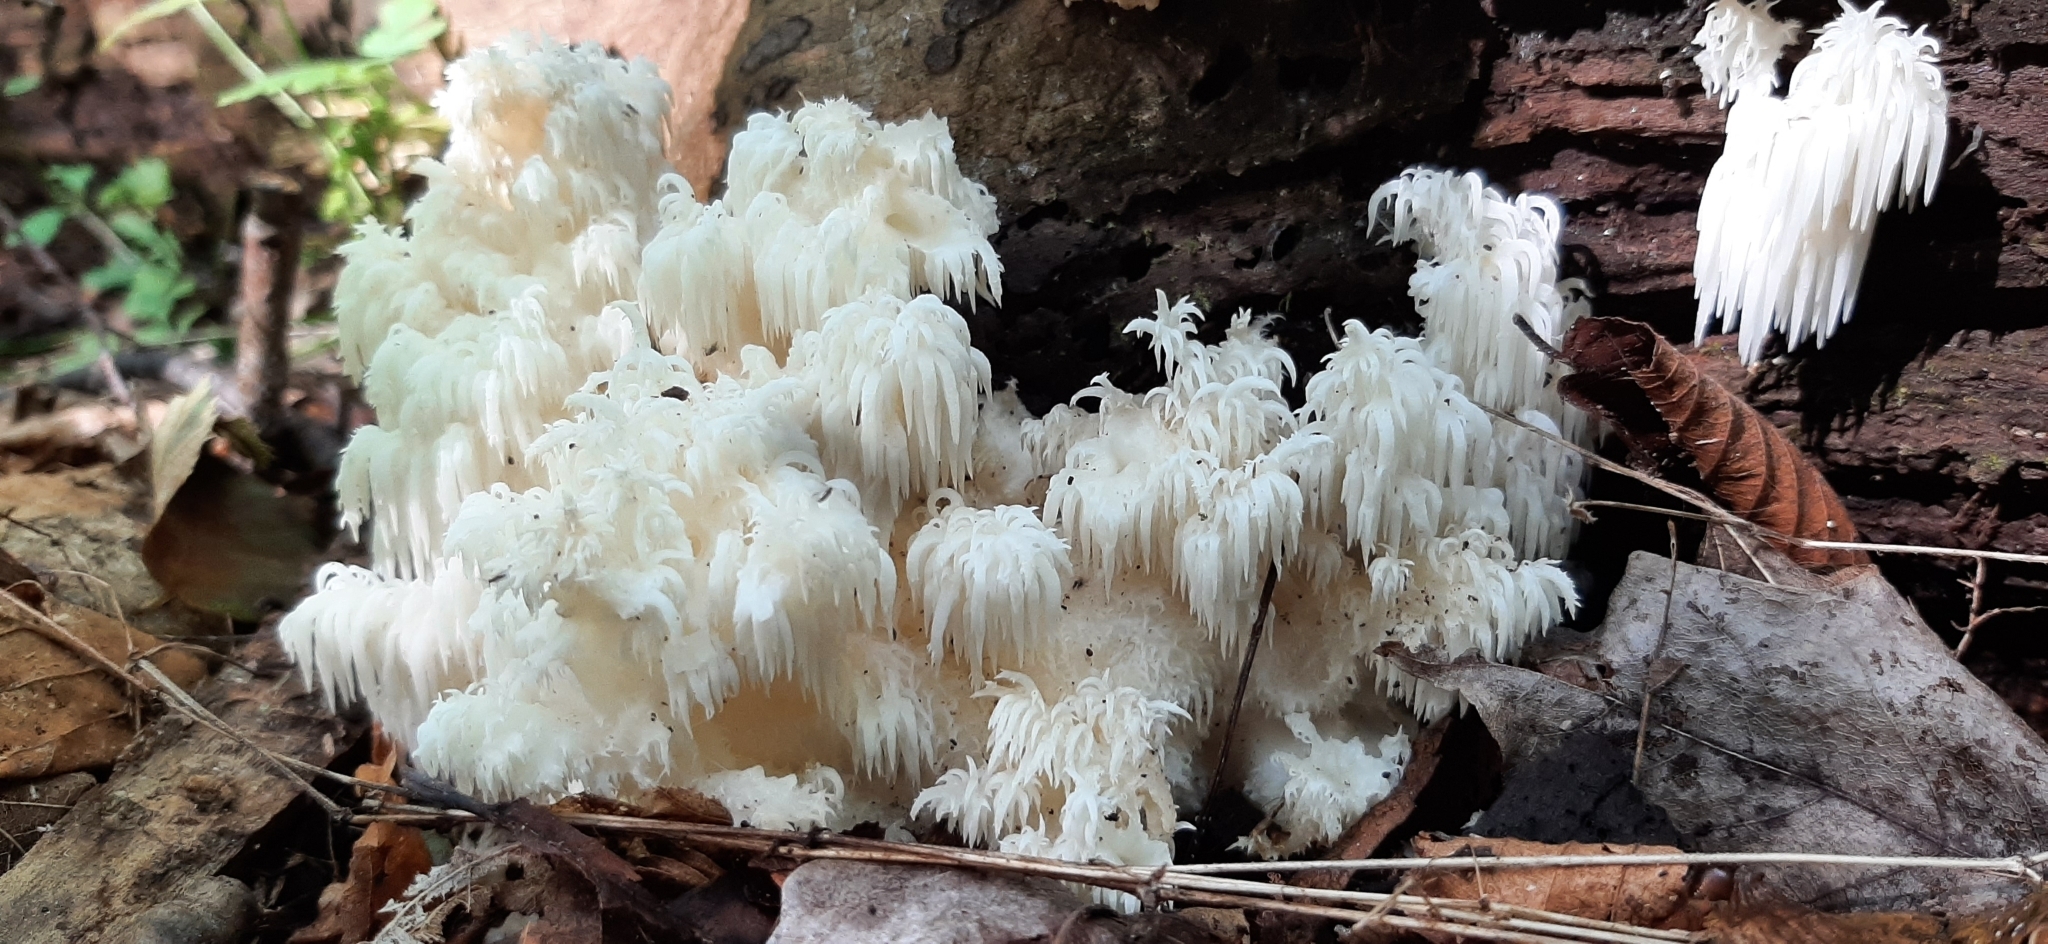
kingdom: Fungi
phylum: Basidiomycota
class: Agaricomycetes
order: Russulales
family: Hericiaceae
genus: Hericium
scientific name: Hericium americanum
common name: Bear's head tooth
